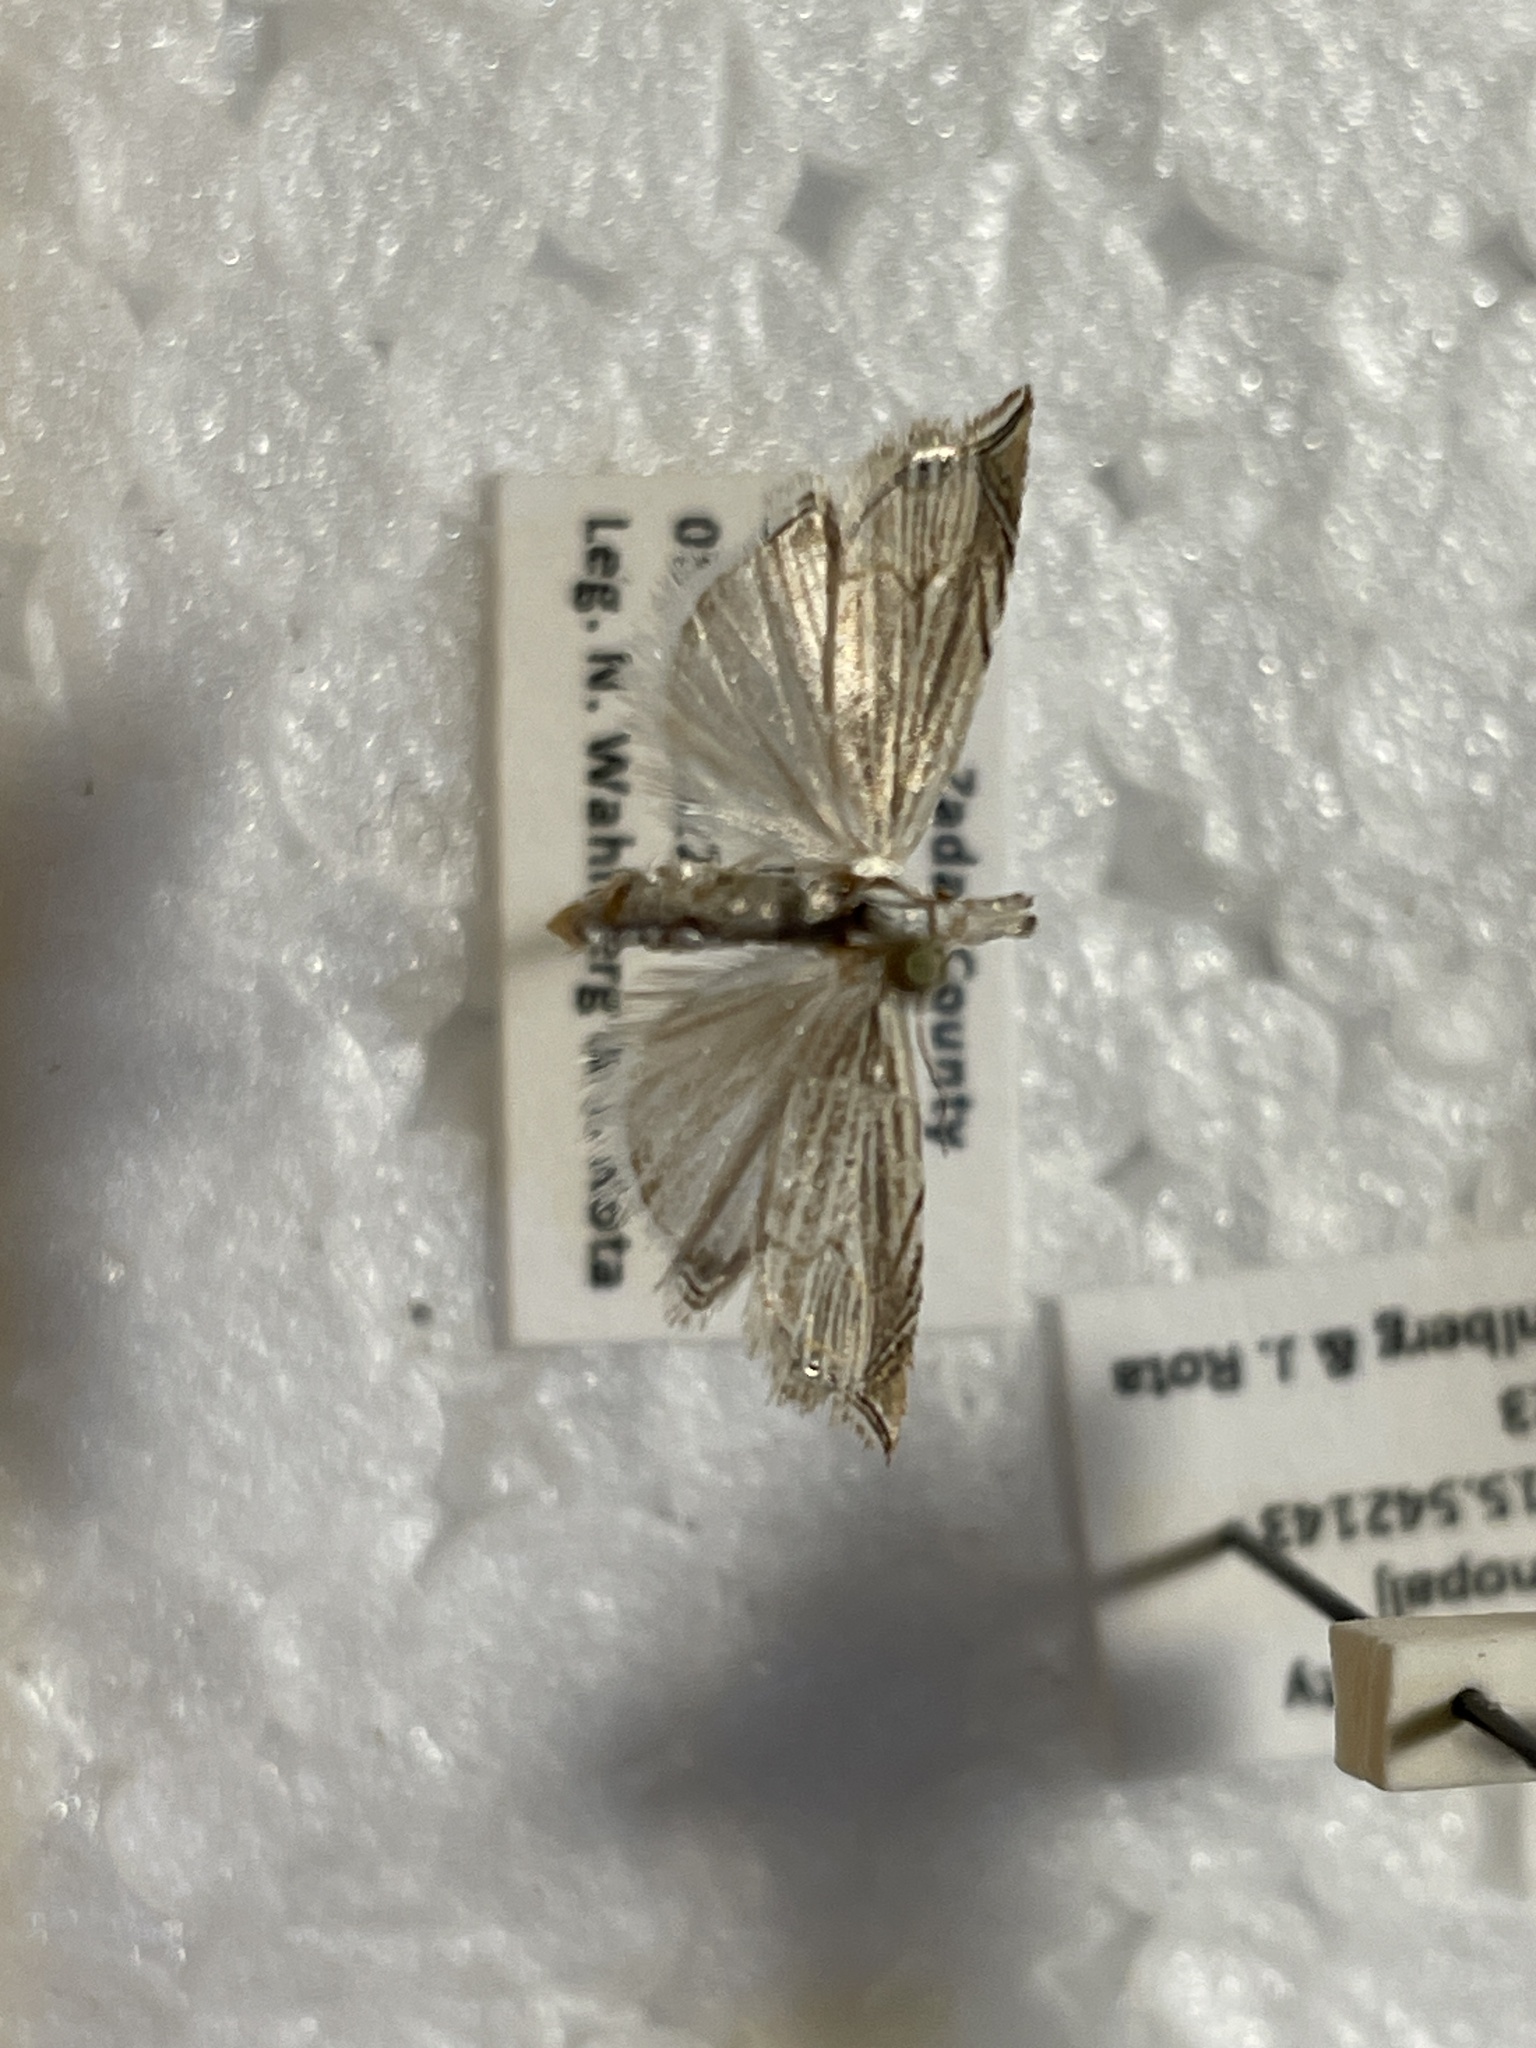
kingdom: Animalia
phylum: Arthropoda
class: Insecta
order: Lepidoptera
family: Crambidae
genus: Metacrambus
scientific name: Metacrambus carectellus
